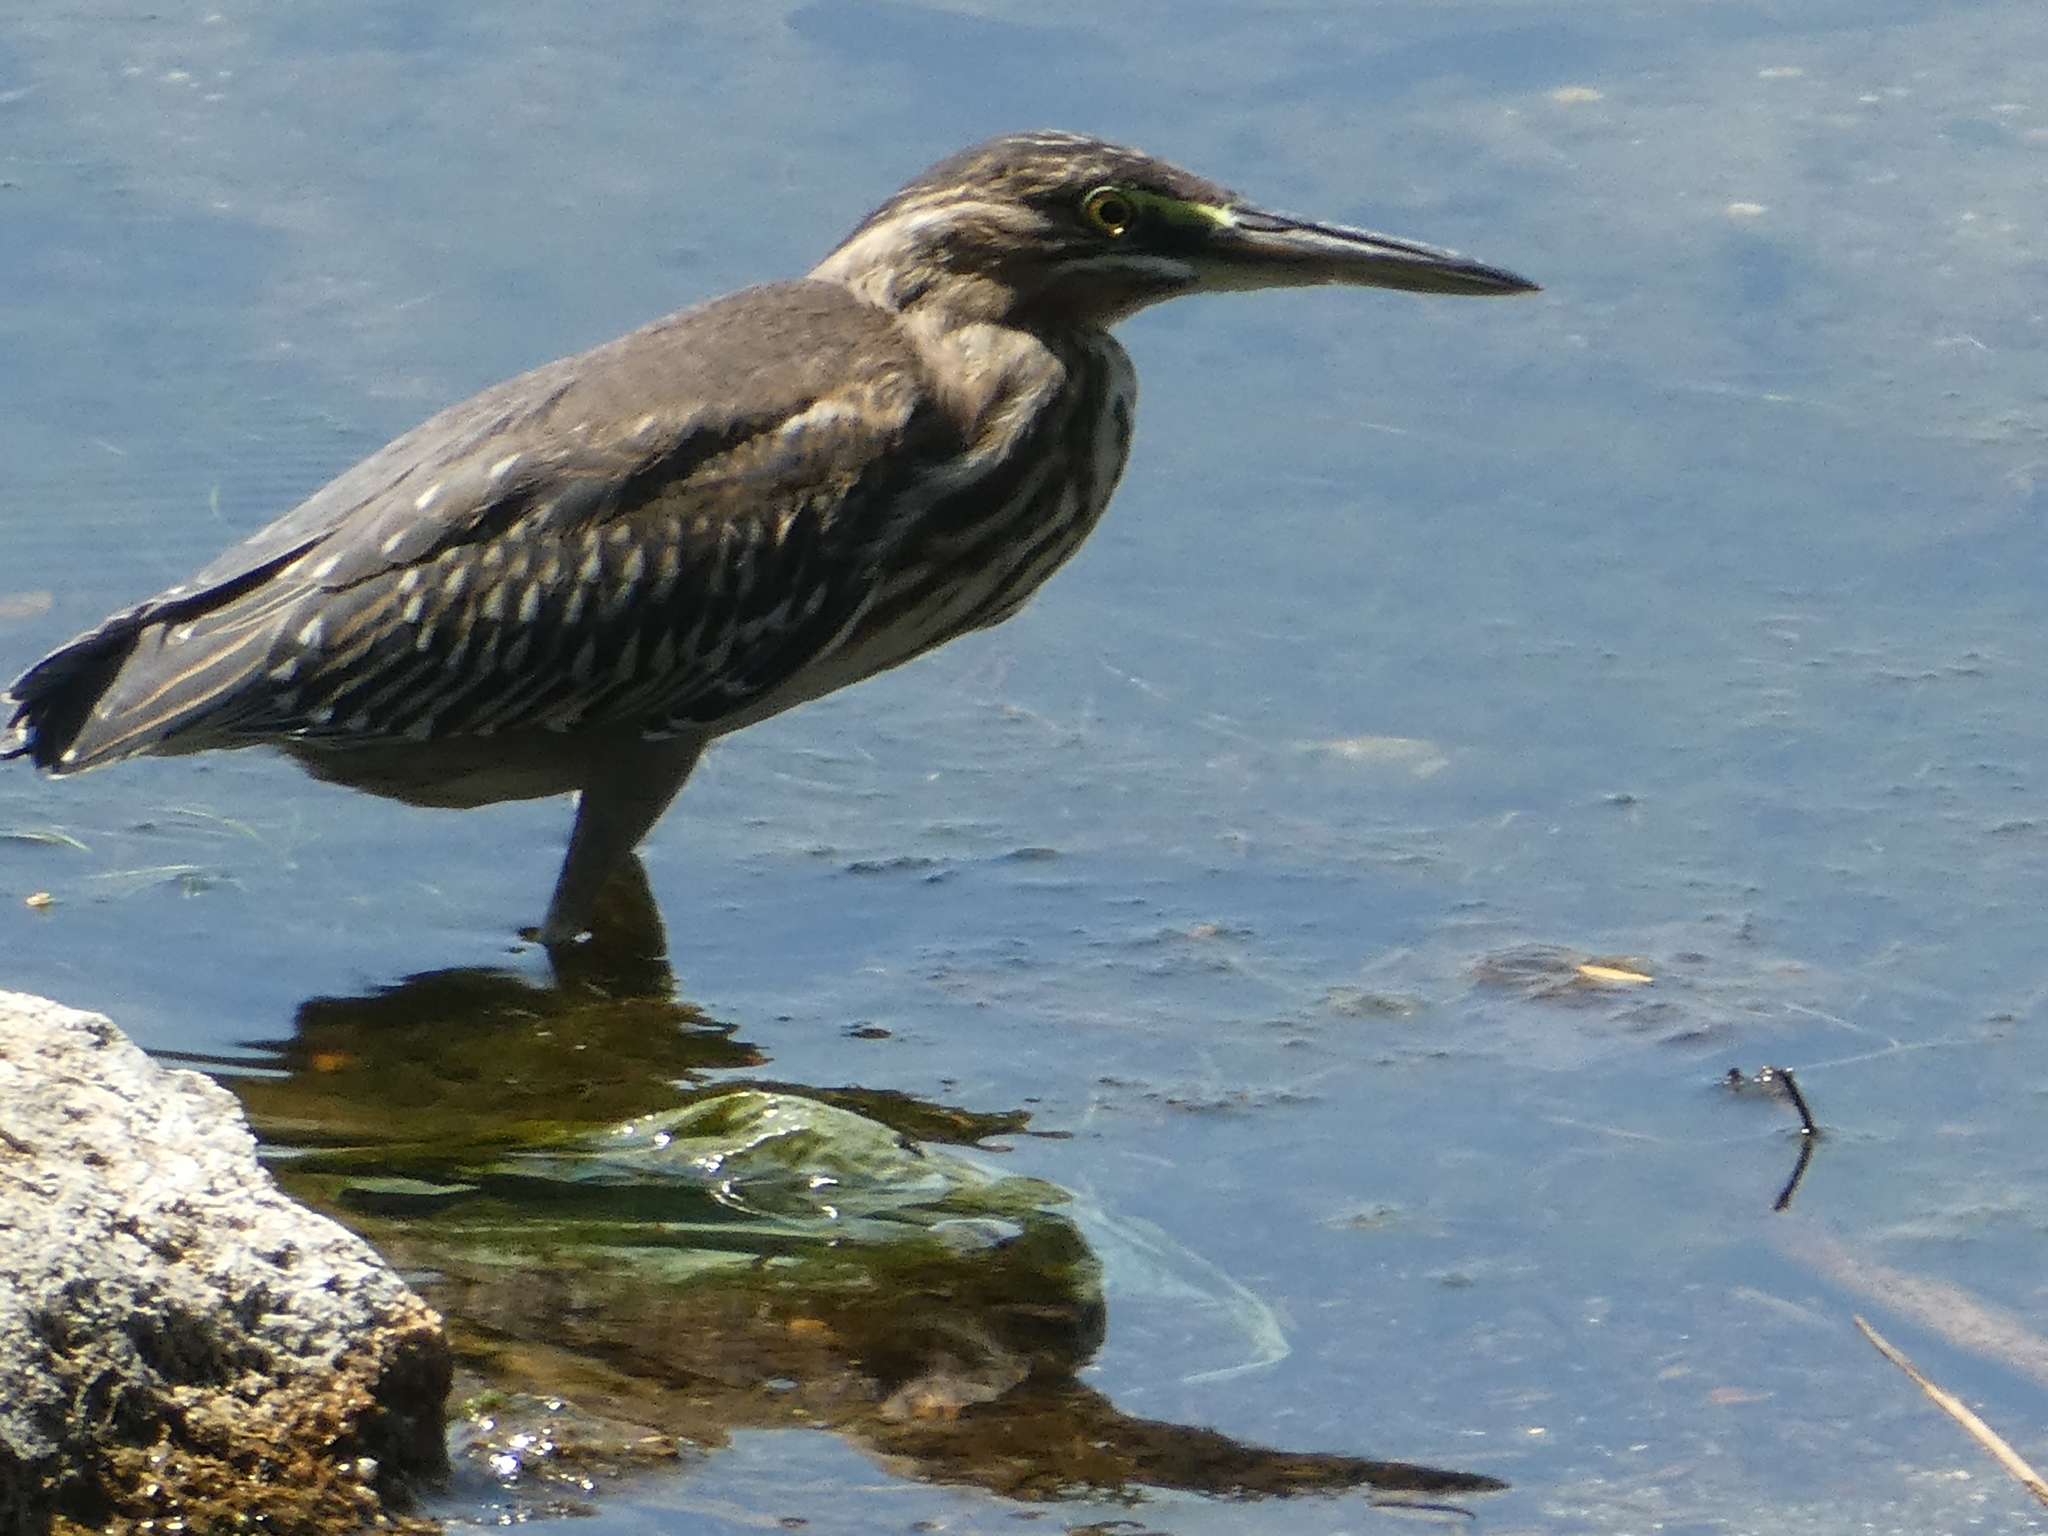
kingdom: Animalia
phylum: Chordata
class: Aves
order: Pelecaniformes
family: Ardeidae
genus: Butorides
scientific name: Butorides striata
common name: Striated heron
